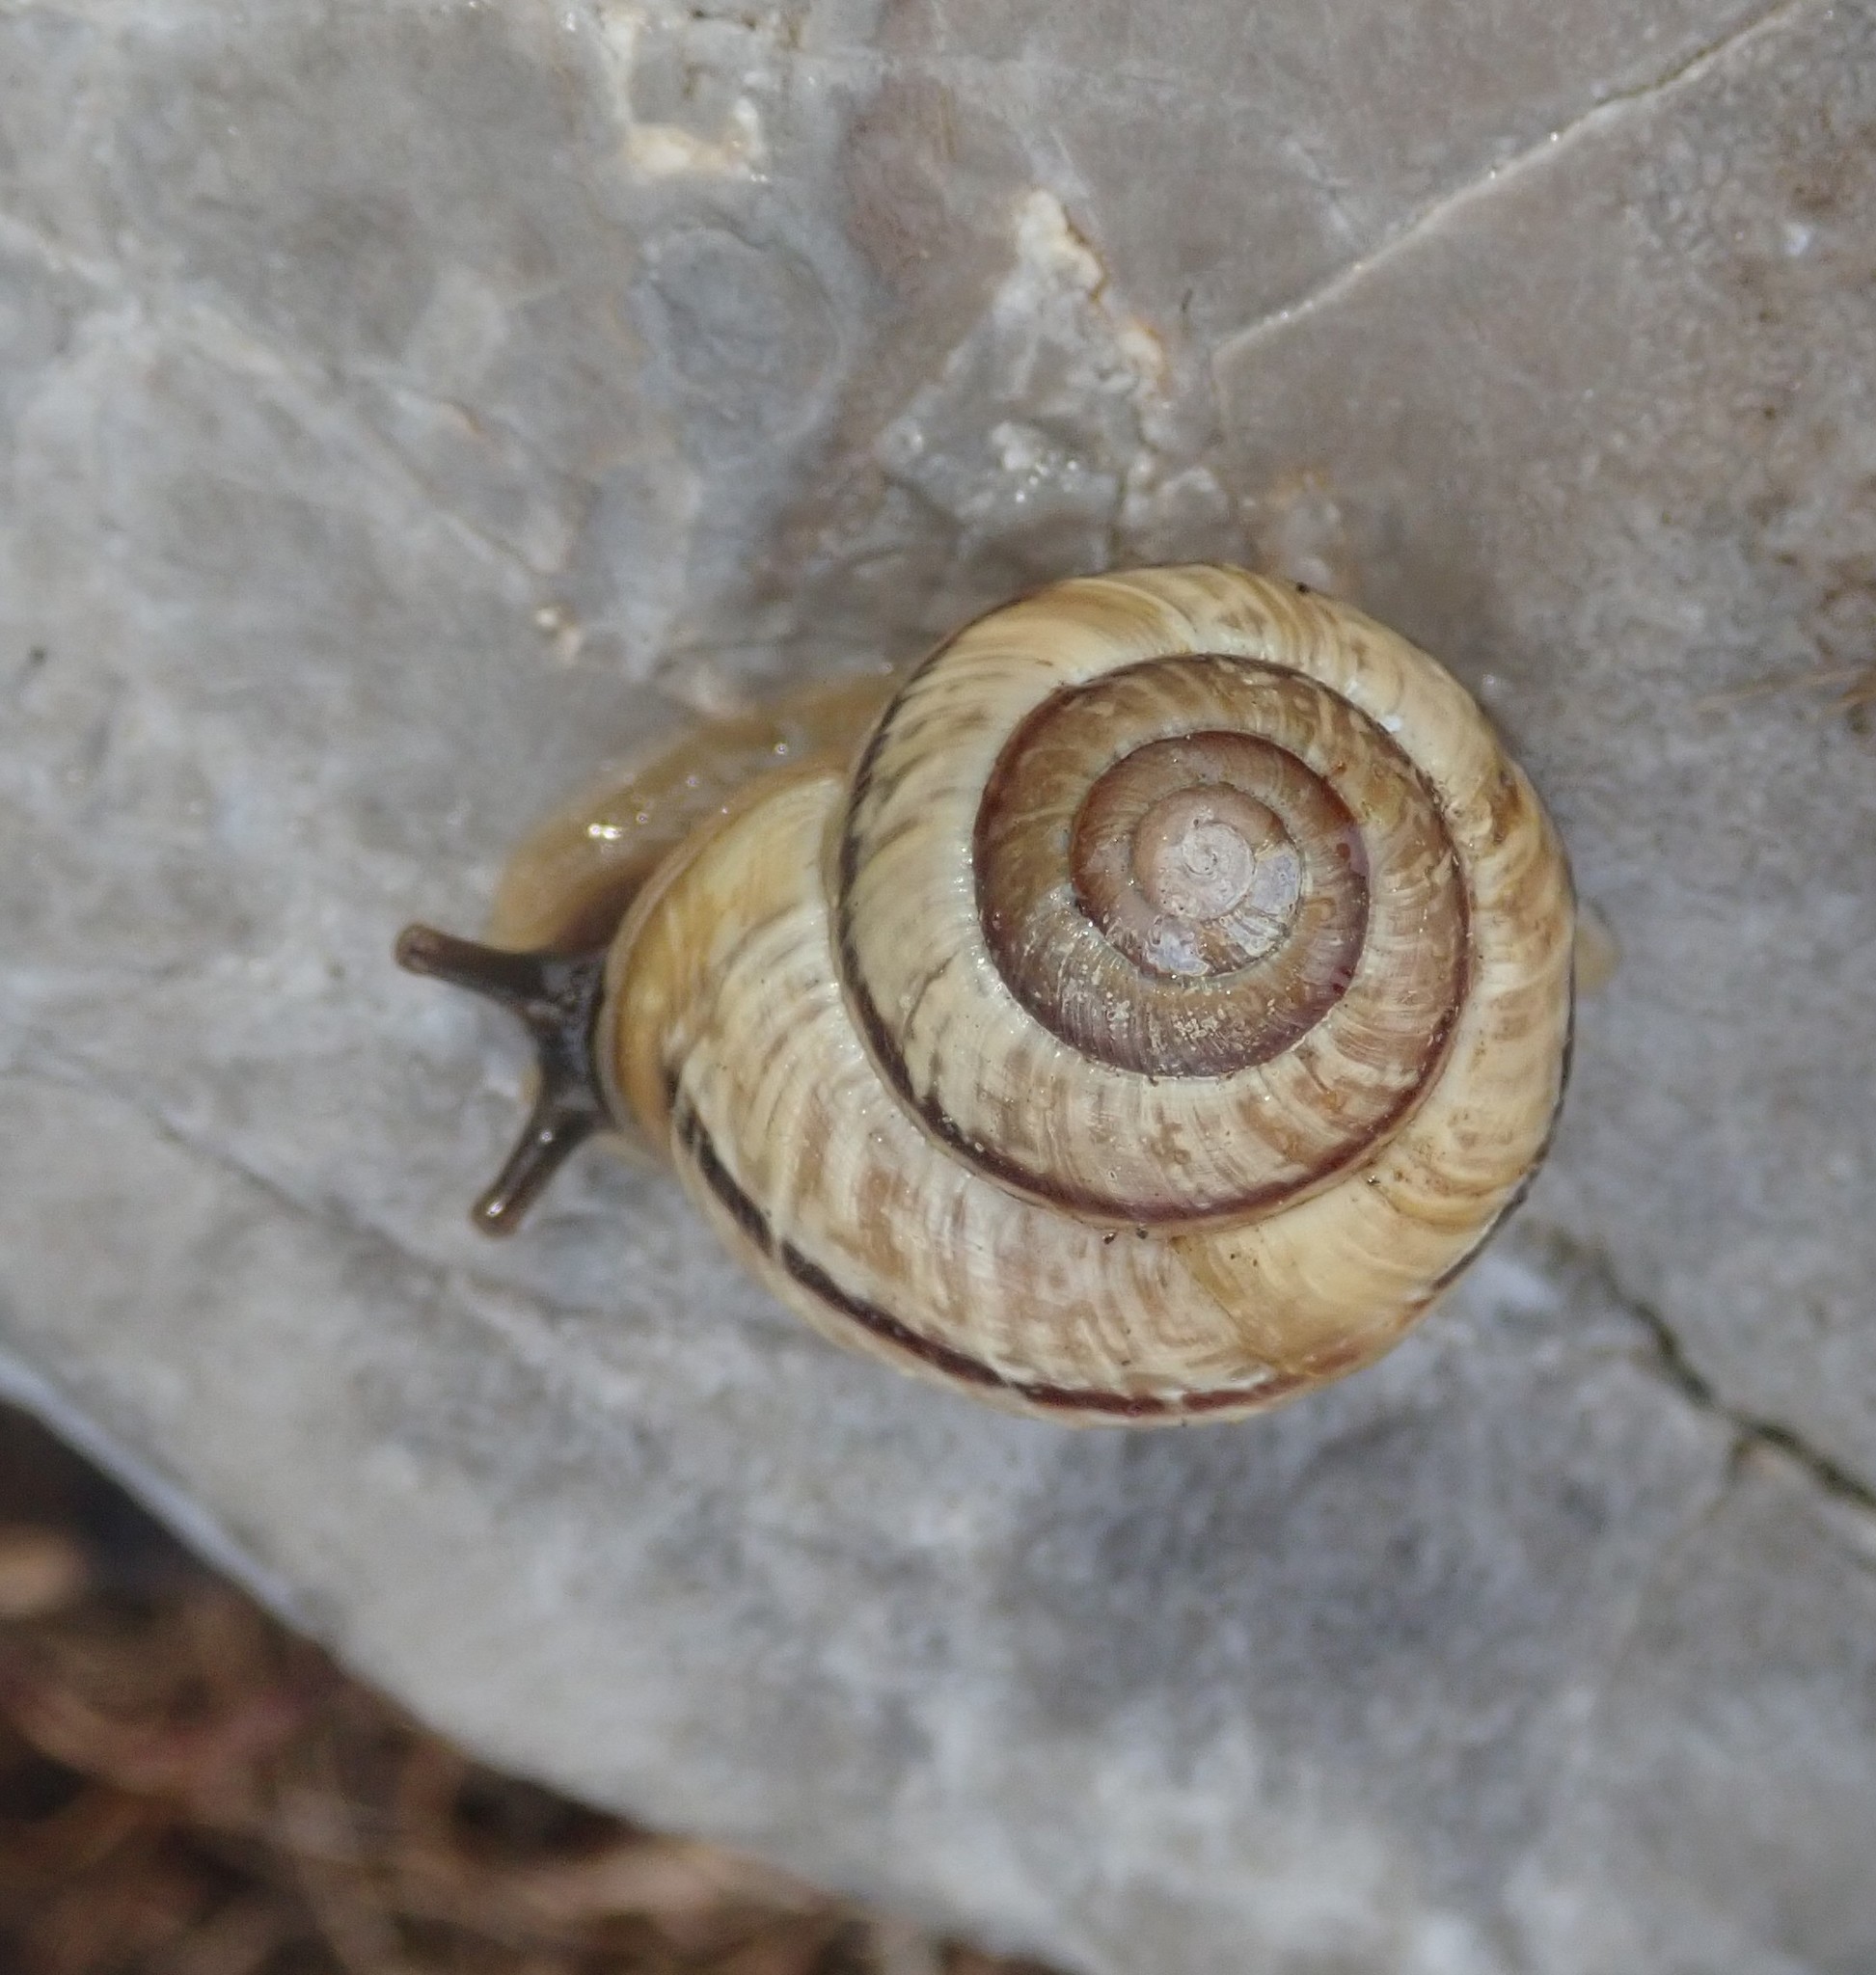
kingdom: Animalia
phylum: Mollusca
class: Gastropoda
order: Stylommatophora
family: Helicidae
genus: Arianta
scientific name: Arianta arbustorum
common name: Copse snail
